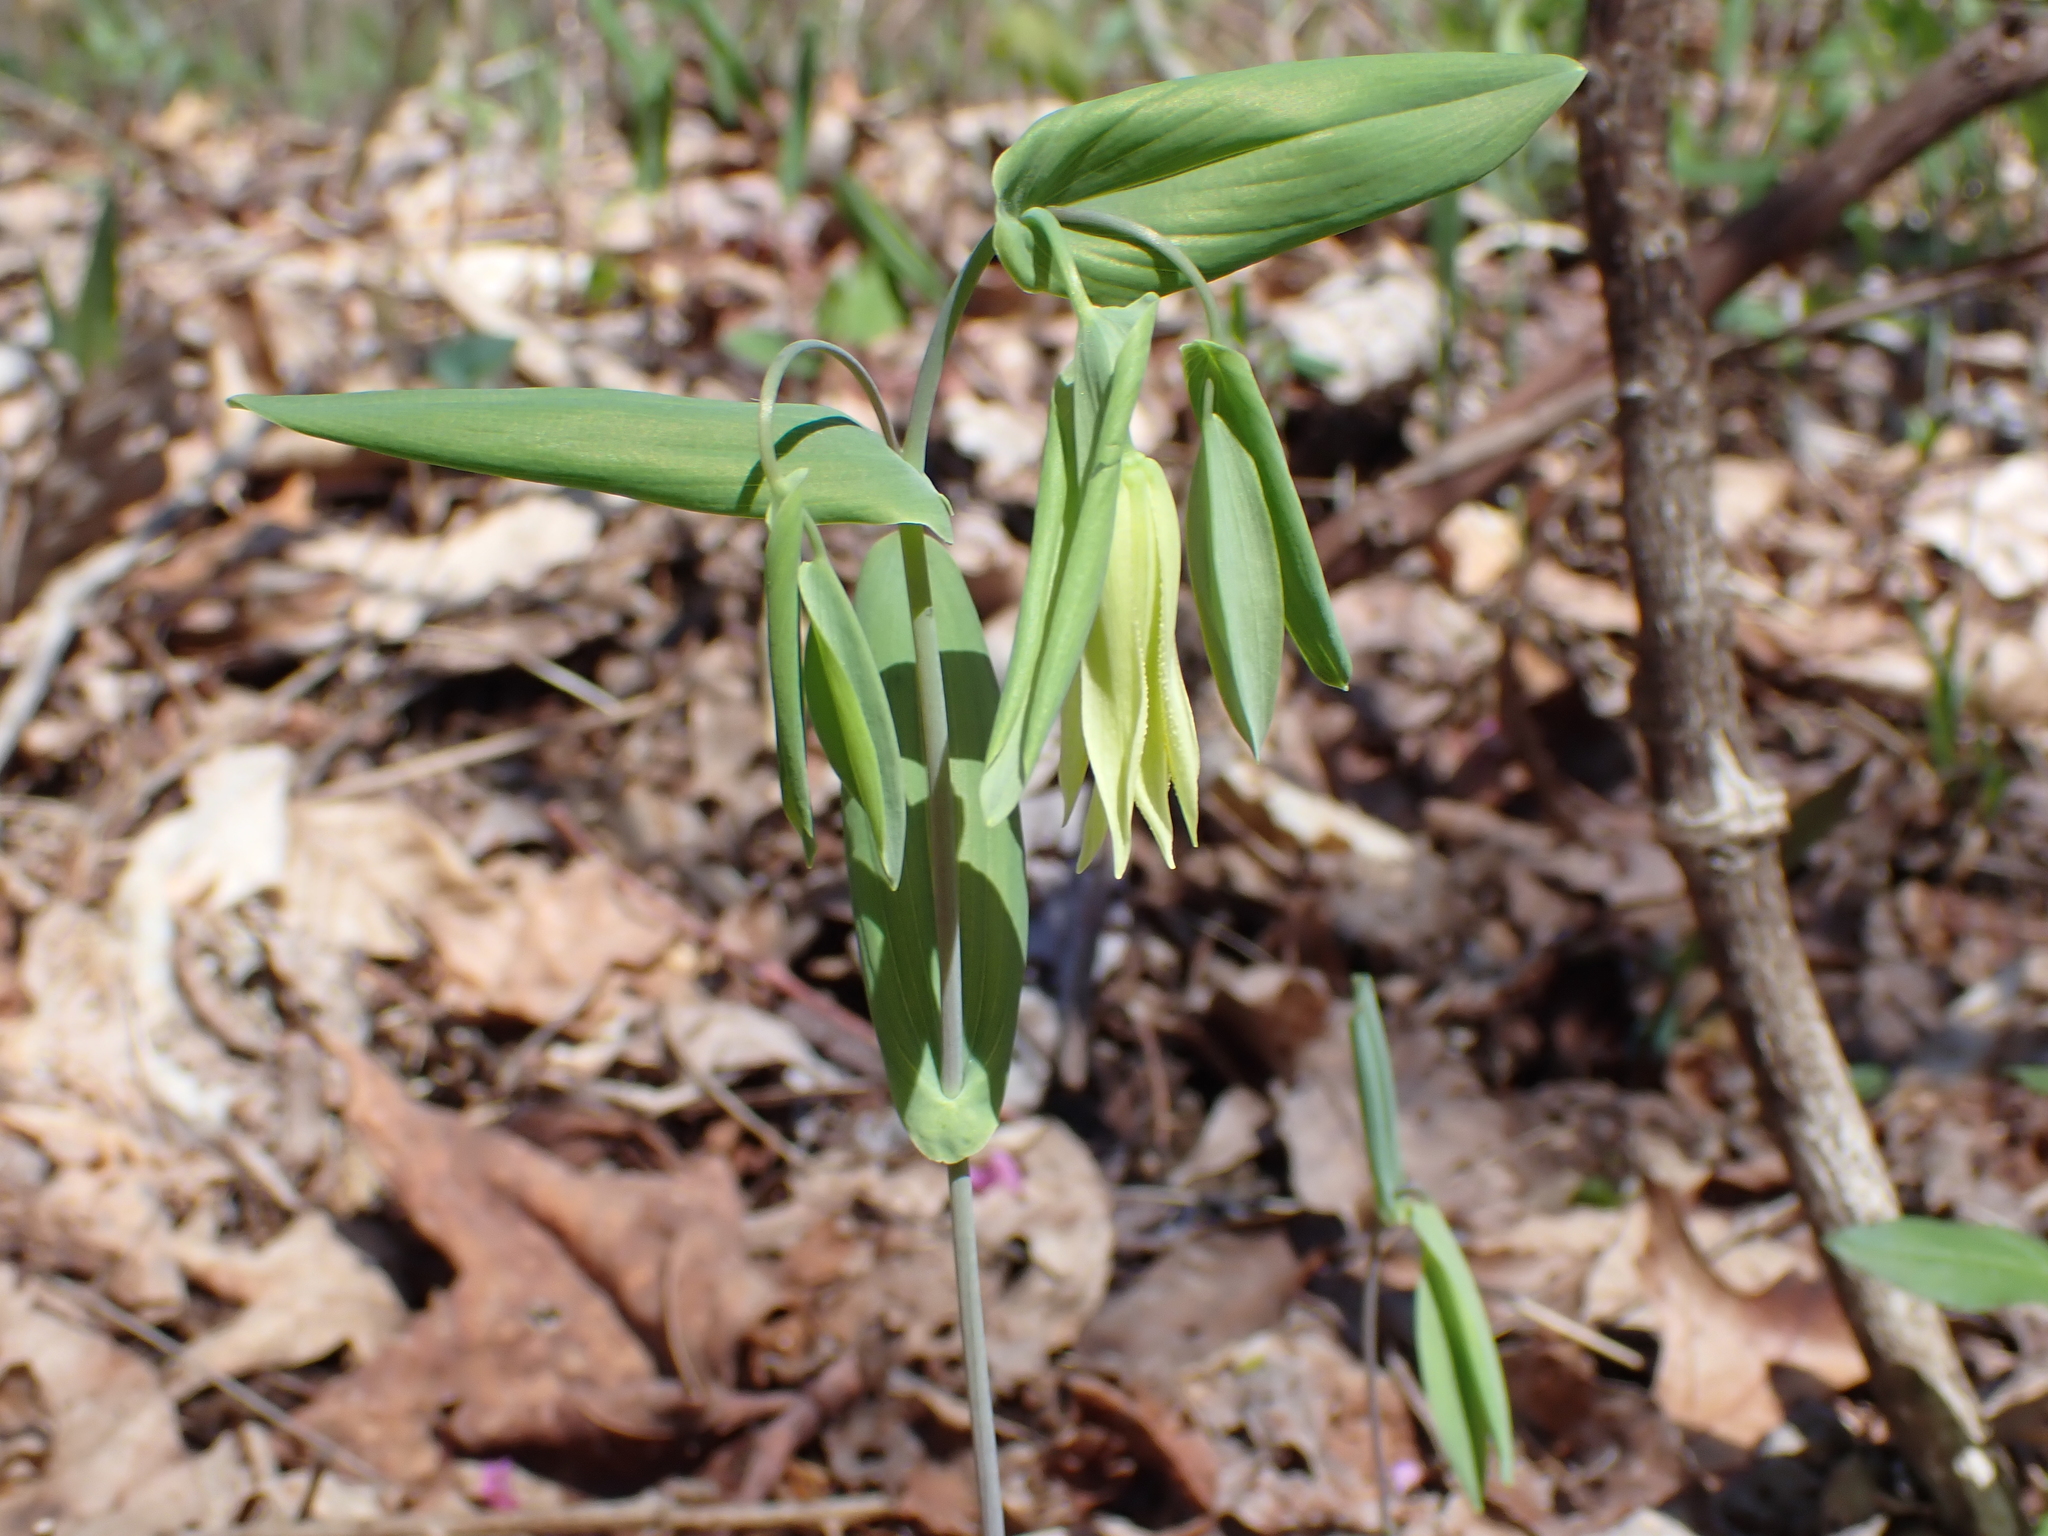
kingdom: Plantae
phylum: Tracheophyta
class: Liliopsida
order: Liliales
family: Colchicaceae
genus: Uvularia
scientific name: Uvularia perfoliata
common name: Perfoliate bellwort
